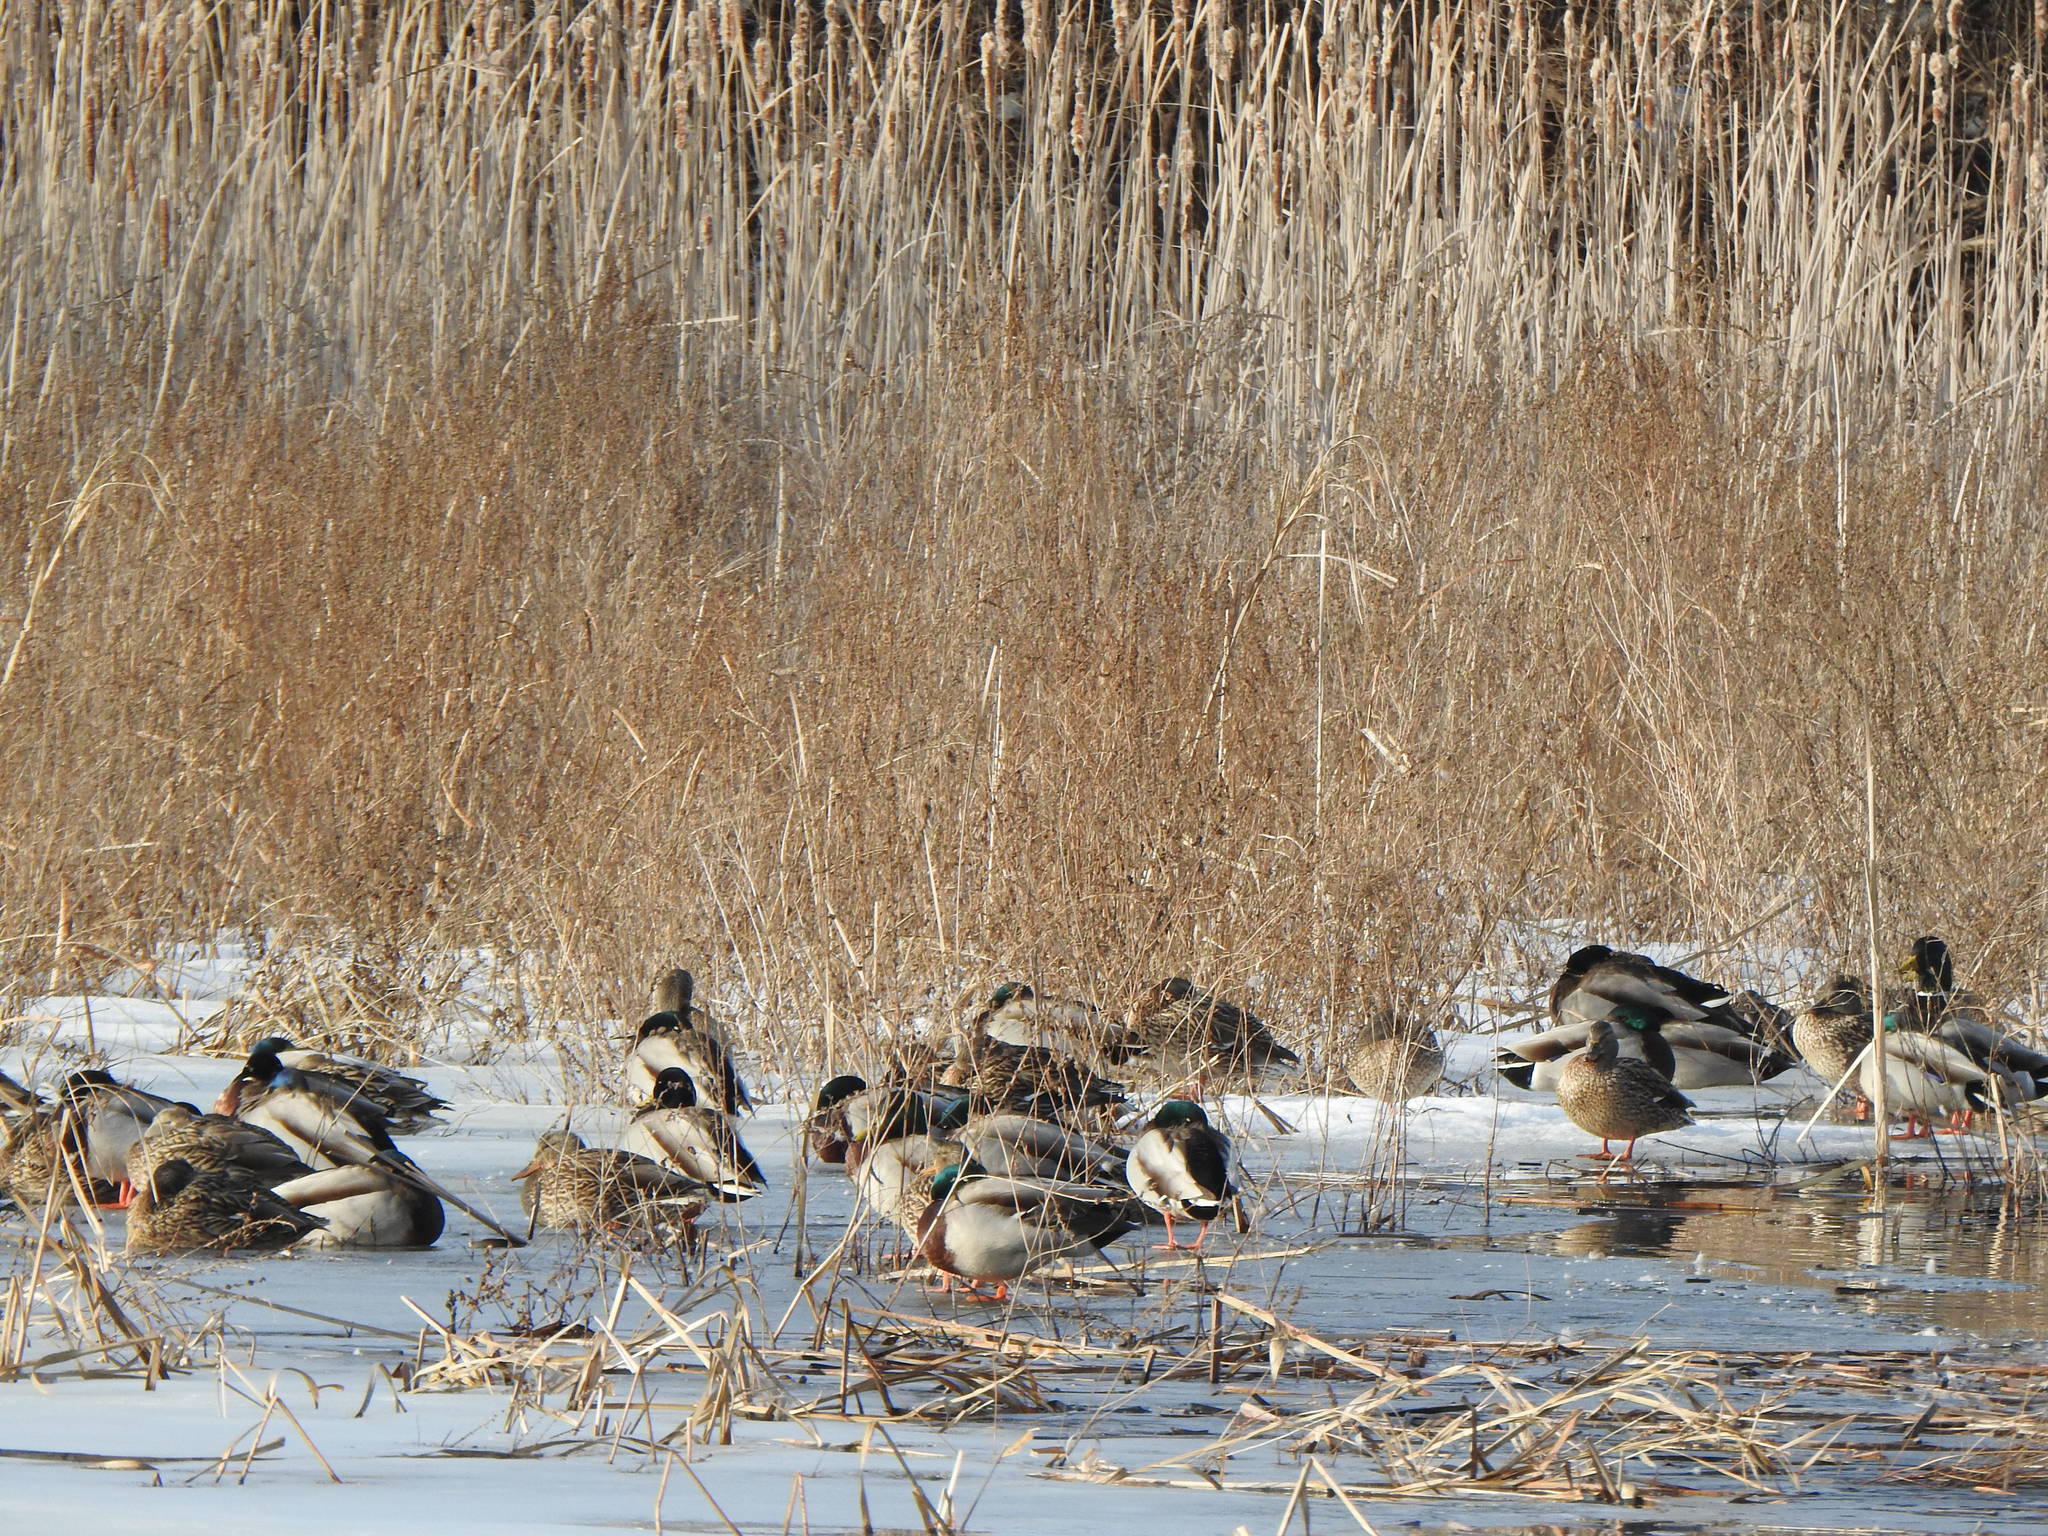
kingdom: Animalia
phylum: Chordata
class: Aves
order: Anseriformes
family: Anatidae
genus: Anas
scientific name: Anas platyrhynchos
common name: Mallard
